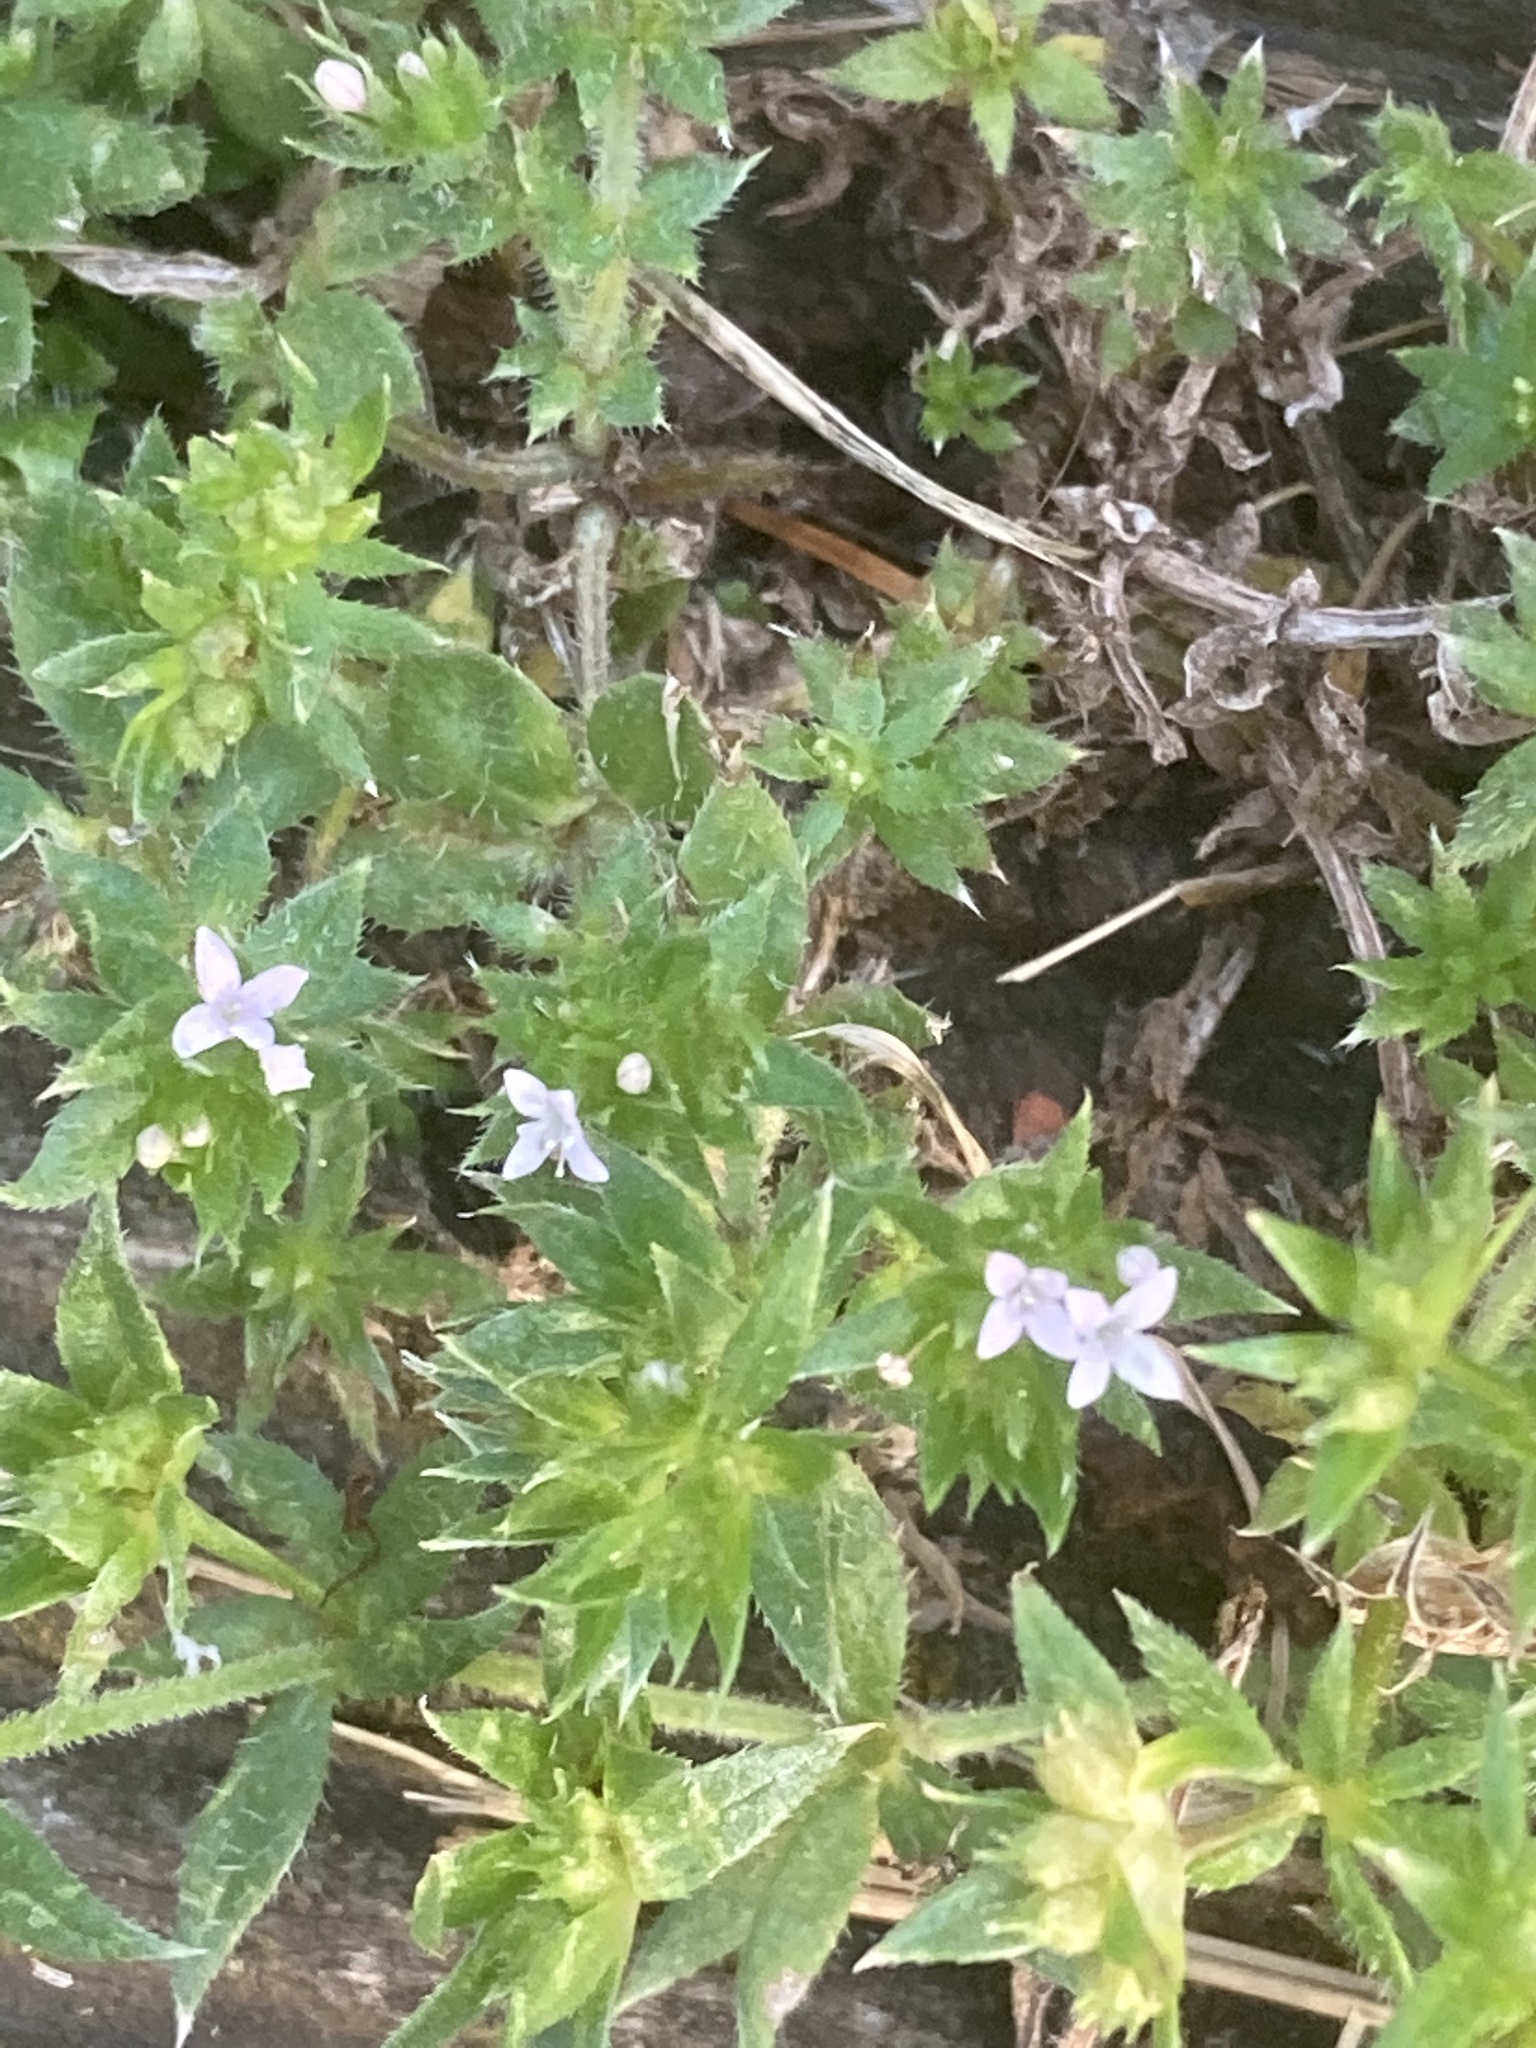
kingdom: Plantae
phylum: Tracheophyta
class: Magnoliopsida
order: Gentianales
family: Rubiaceae
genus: Sherardia
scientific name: Sherardia arvensis
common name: Field madder
